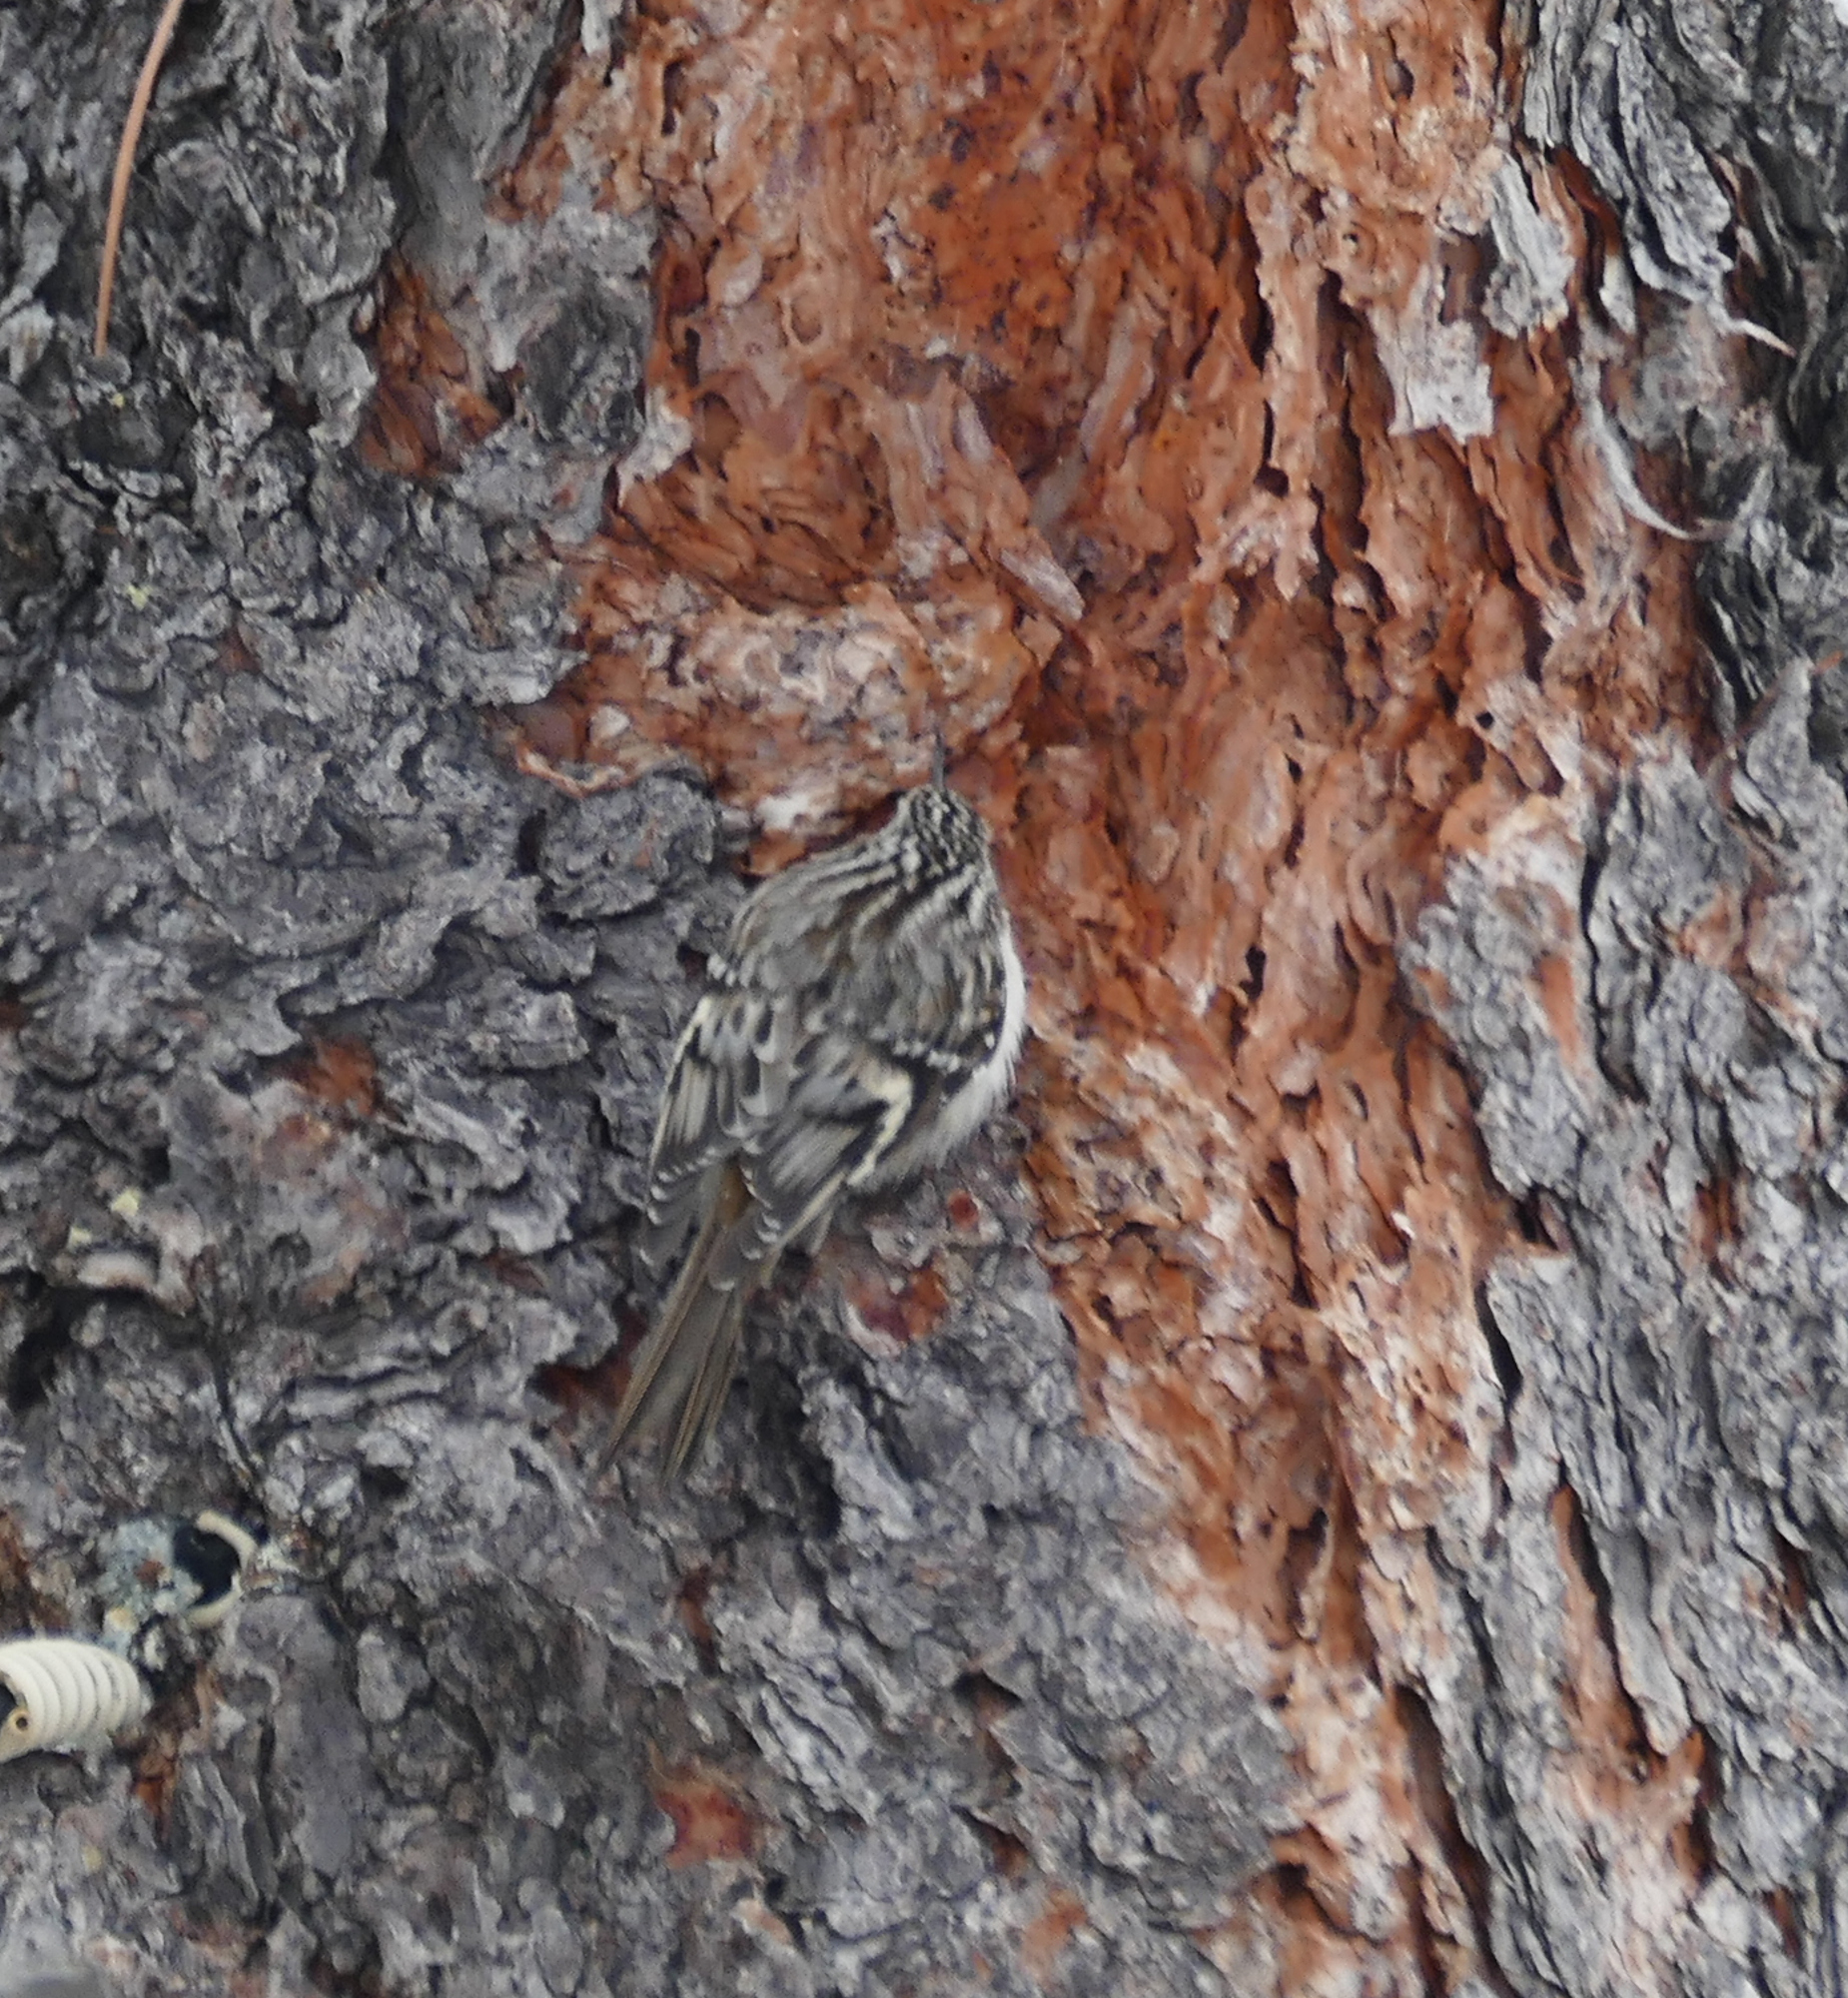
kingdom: Animalia
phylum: Chordata
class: Aves
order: Passeriformes
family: Certhiidae
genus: Certhia
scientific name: Certhia americana
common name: Brown creeper
